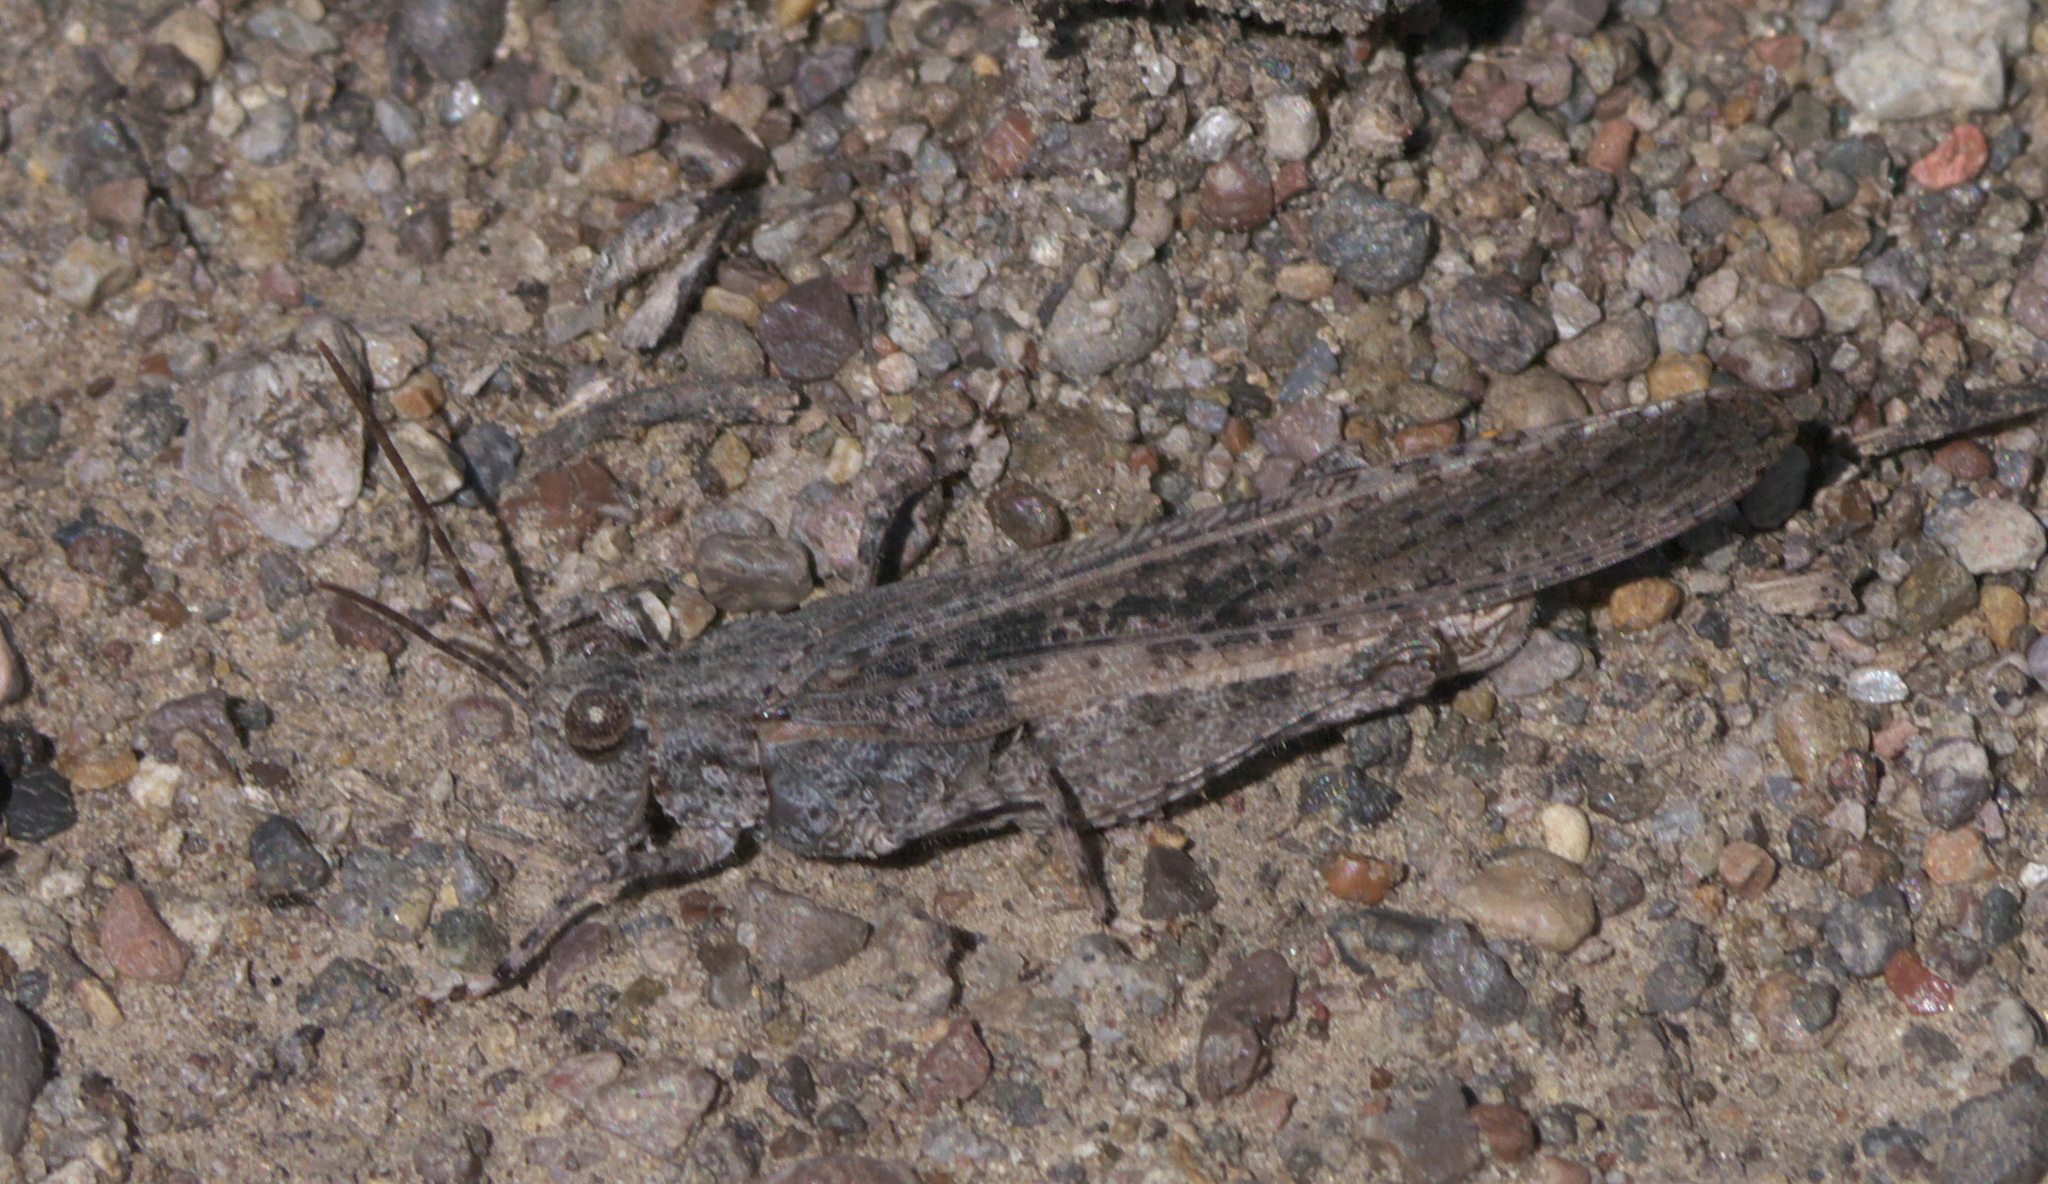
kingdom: Animalia
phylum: Arthropoda
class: Insecta
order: Orthoptera
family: Acrididae
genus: Trimerotropis
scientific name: Trimerotropis gracilis
